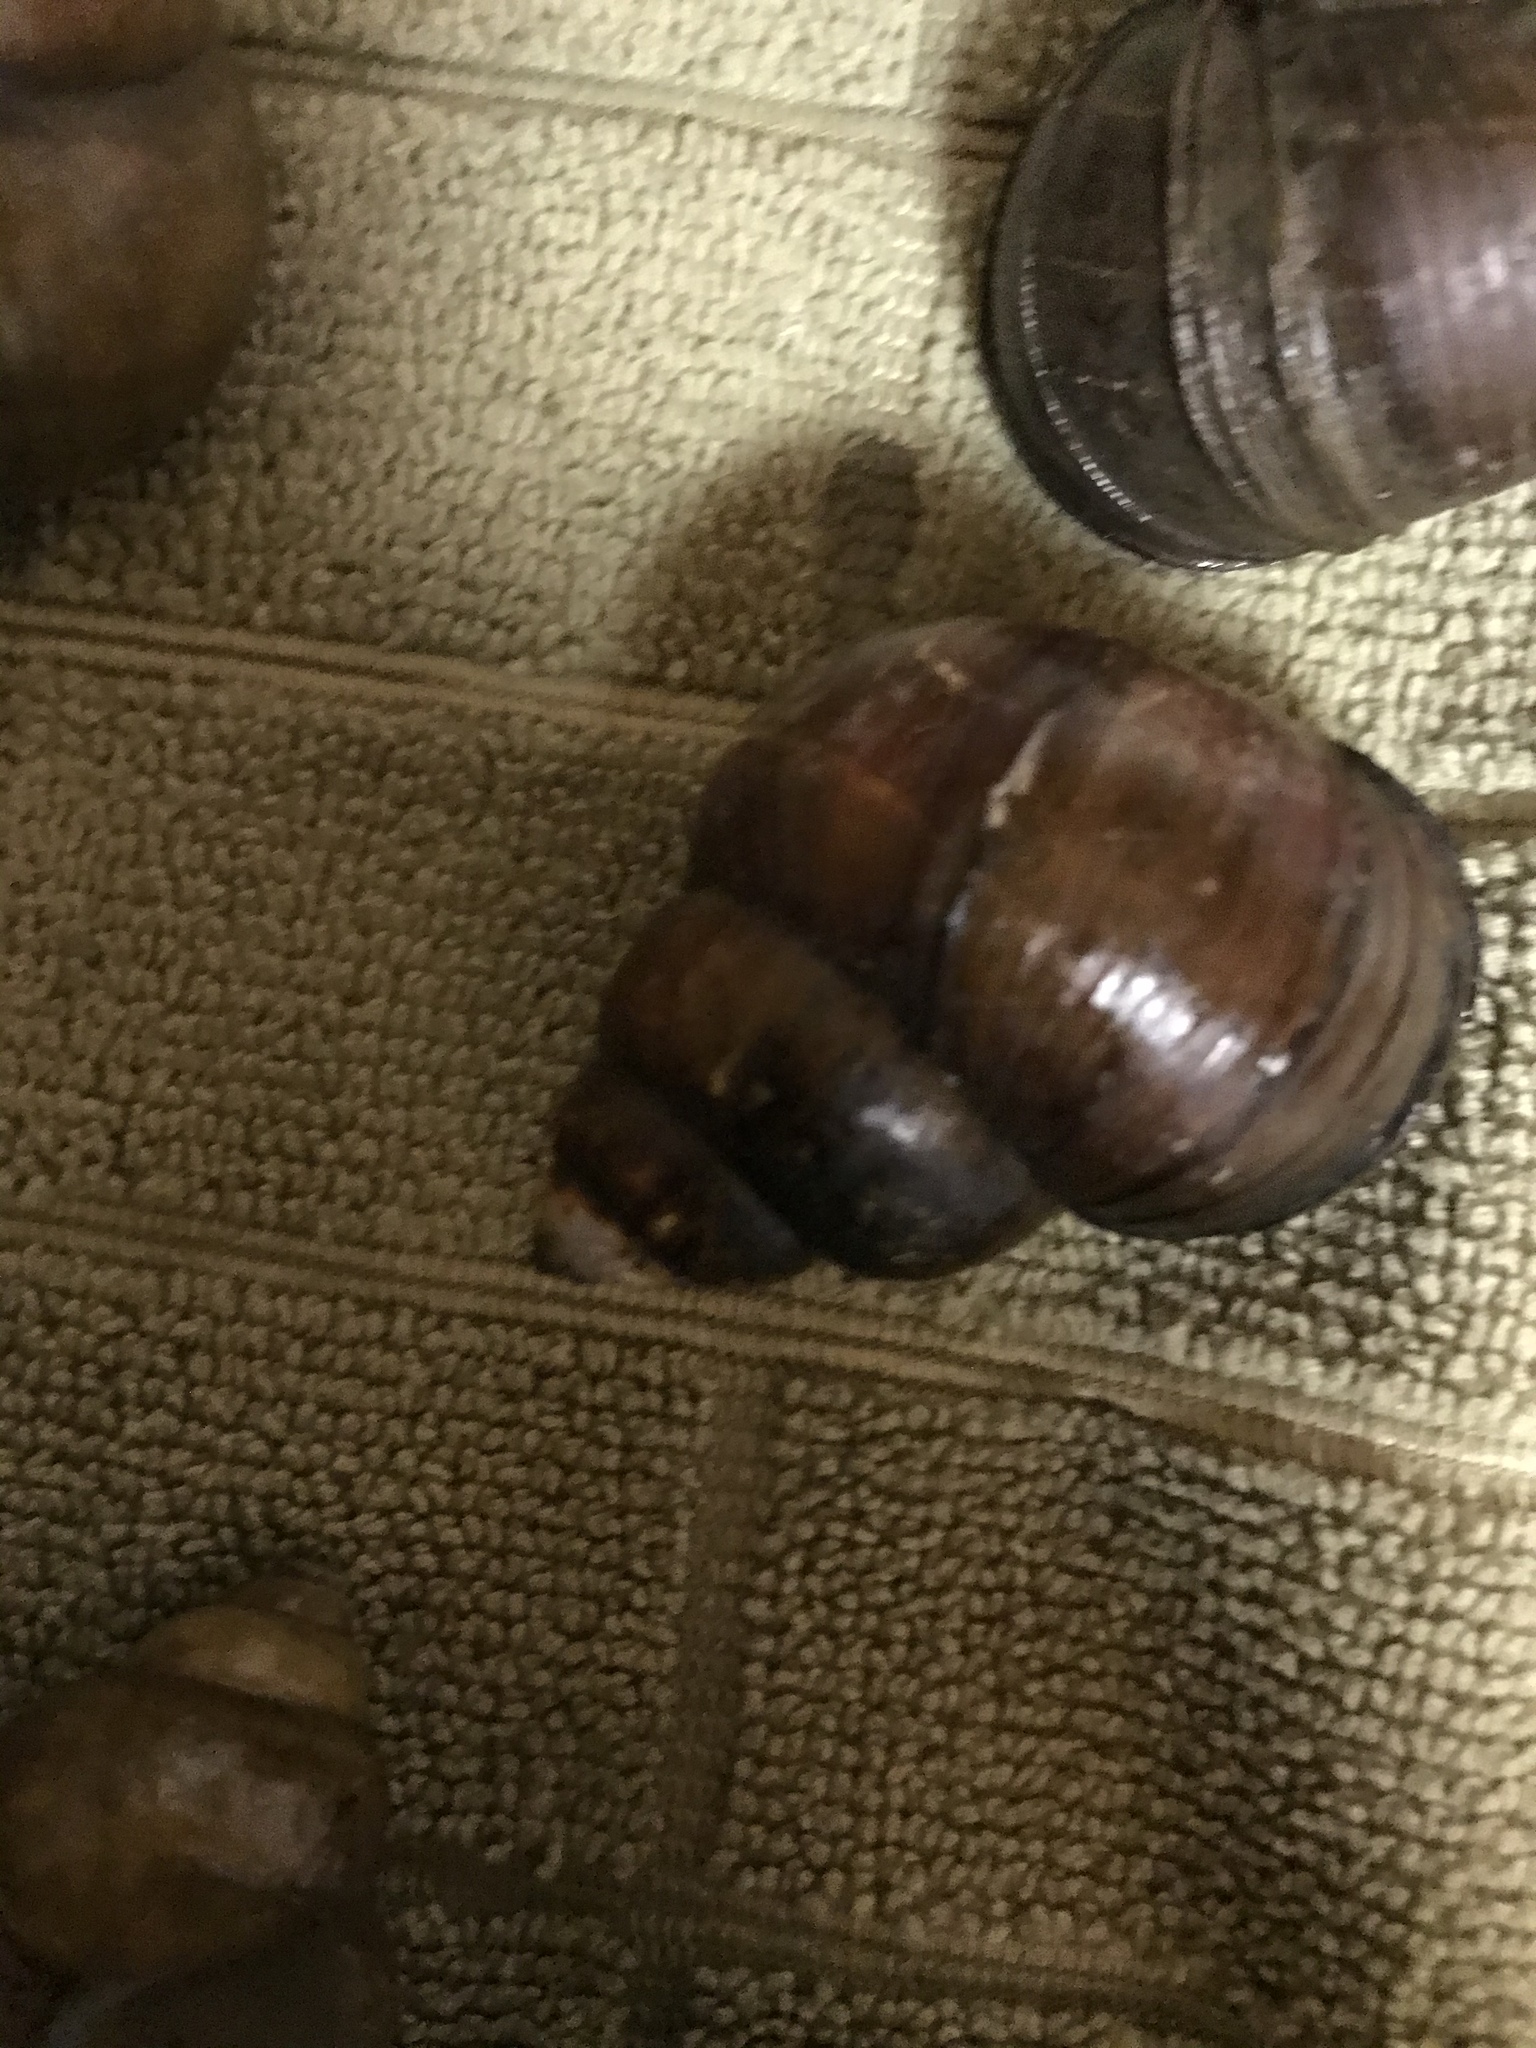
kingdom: Animalia
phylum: Mollusca
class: Gastropoda
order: Architaenioglossa
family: Viviparidae
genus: Cipangopaludina
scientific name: Cipangopaludina chinensis
